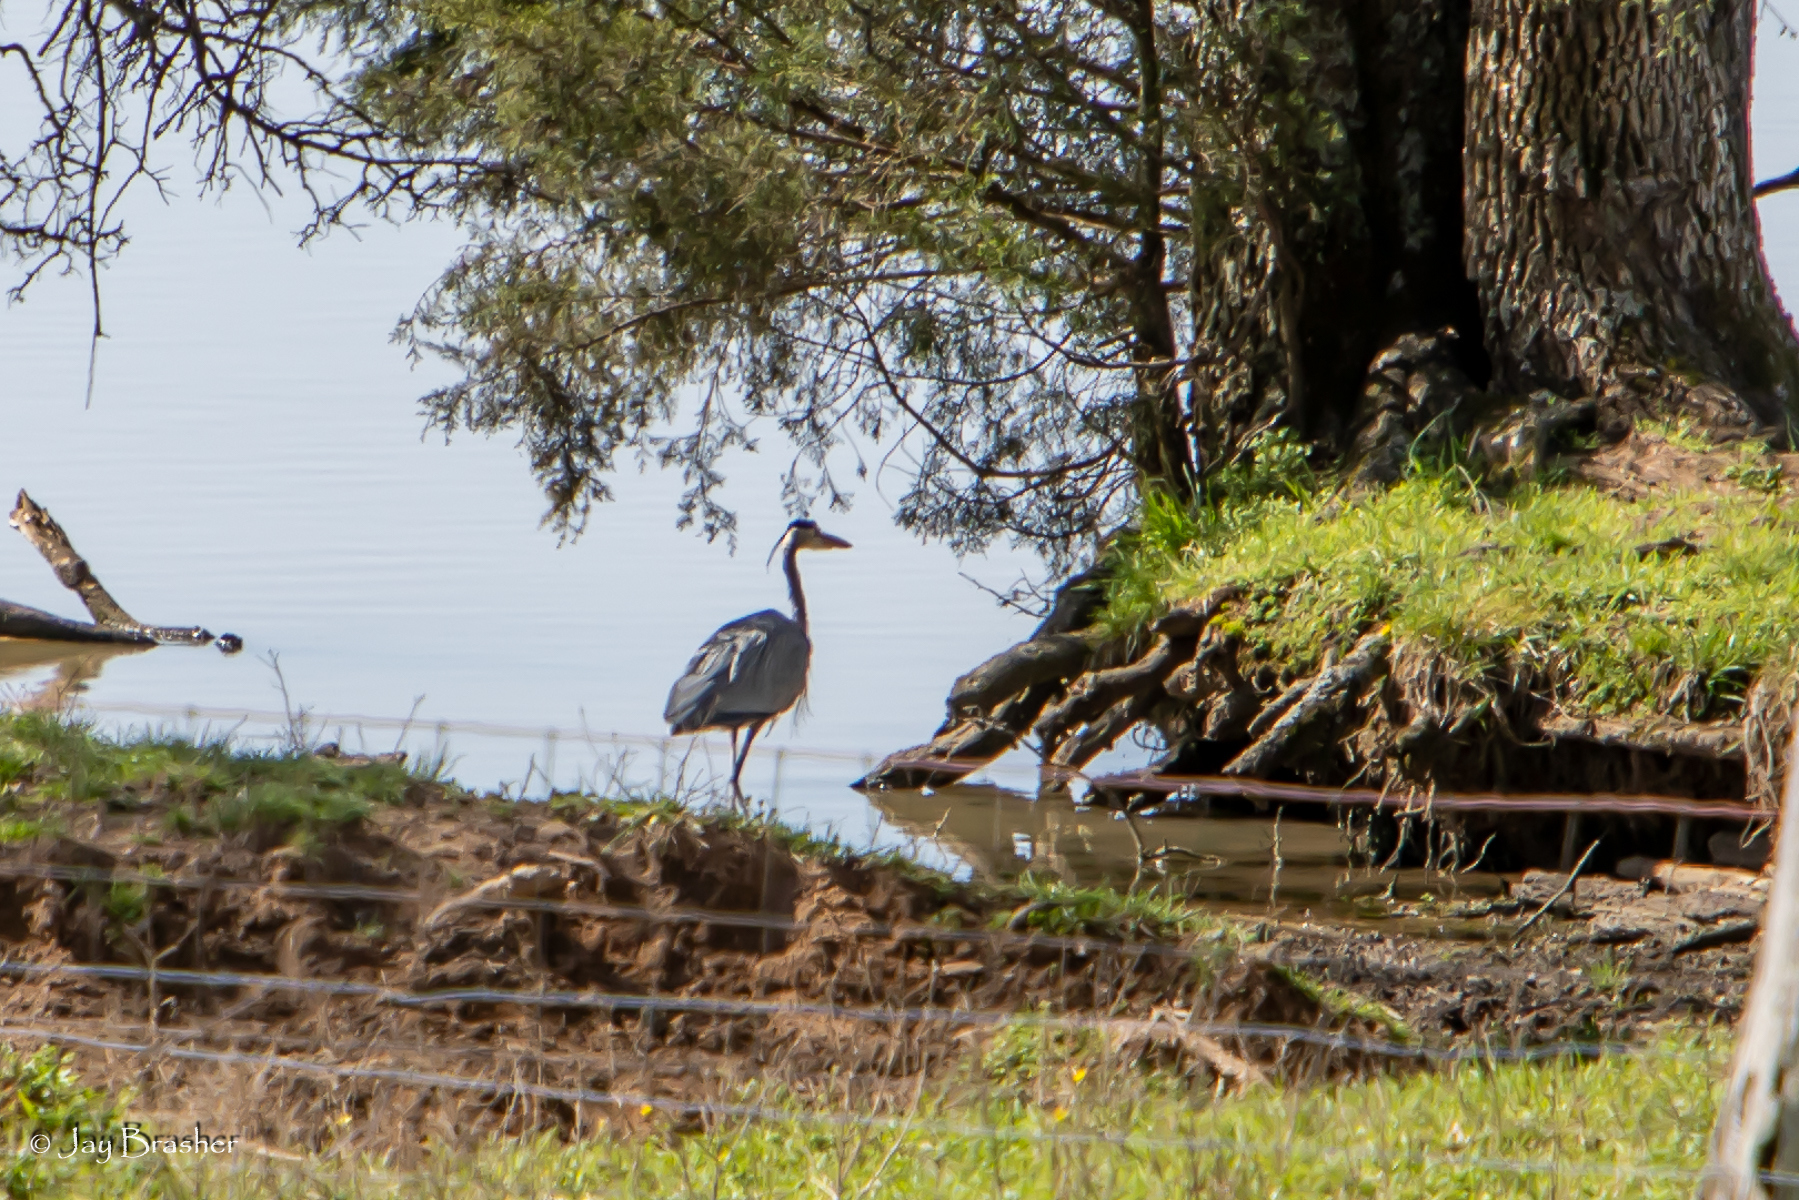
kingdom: Animalia
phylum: Chordata
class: Aves
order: Pelecaniformes
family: Ardeidae
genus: Ardea
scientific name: Ardea herodias
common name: Great blue heron
